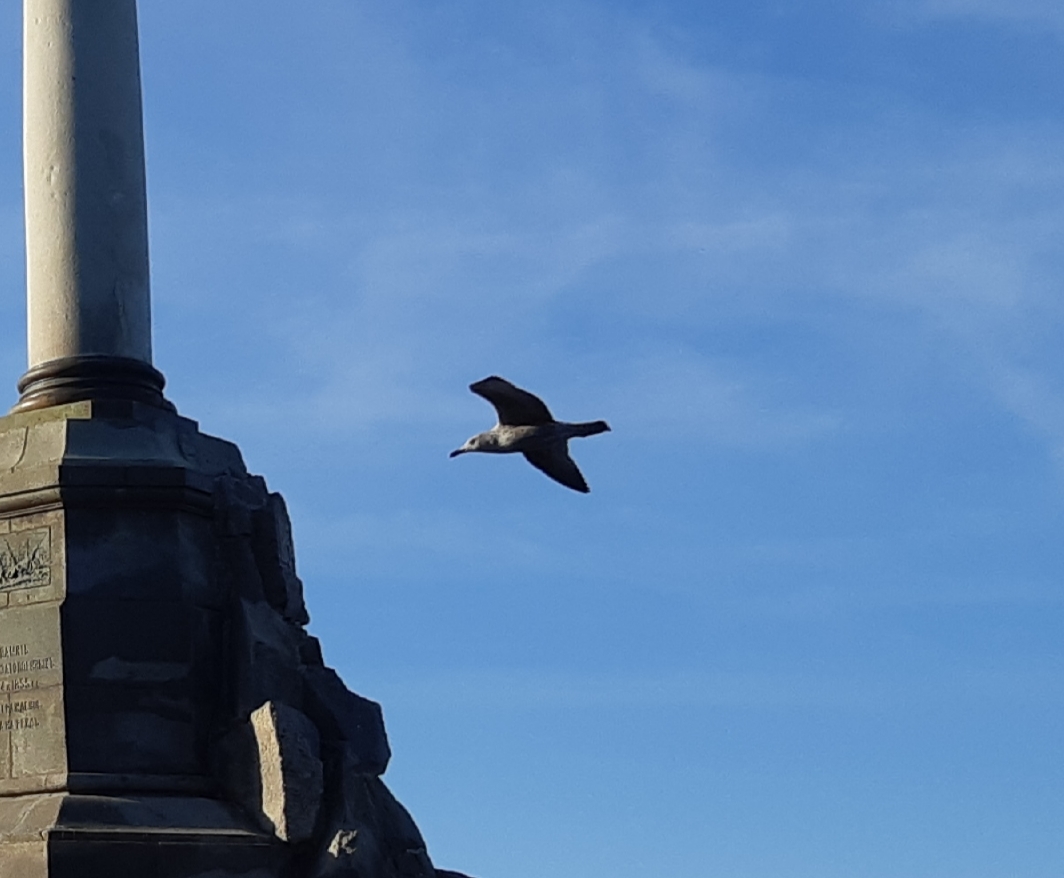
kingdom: Animalia
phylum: Chordata
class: Aves
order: Charadriiformes
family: Laridae
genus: Larus
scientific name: Larus michahellis
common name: Yellow-legged gull
